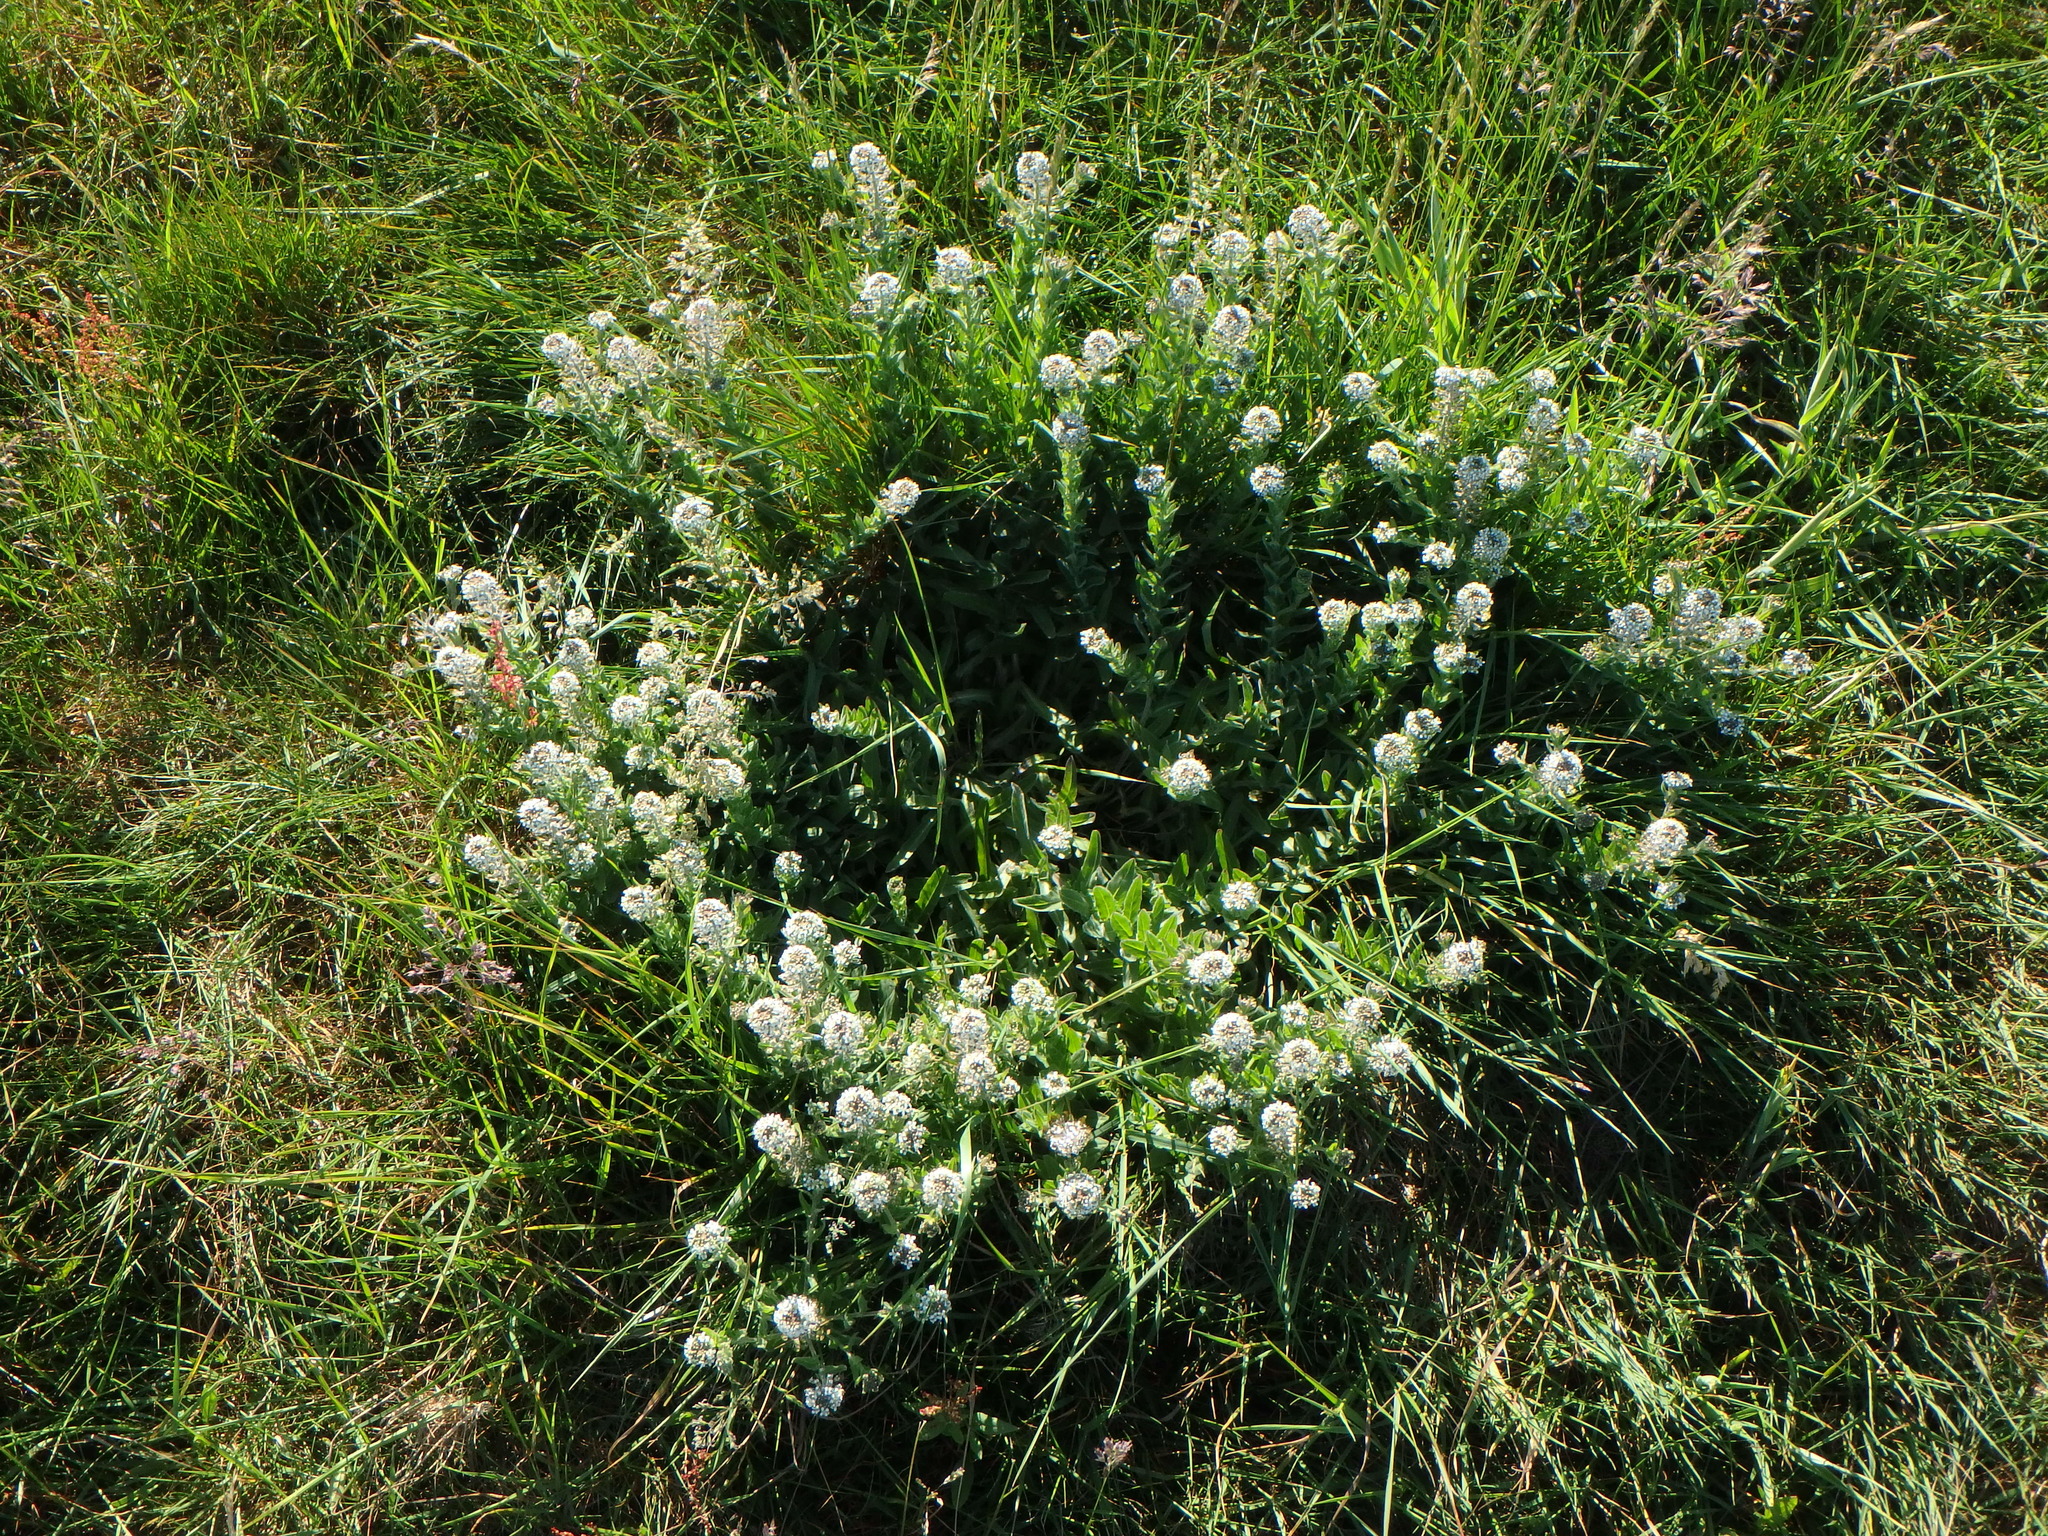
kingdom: Plantae
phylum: Tracheophyta
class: Magnoliopsida
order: Brassicales
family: Brassicaceae
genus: Lepidium
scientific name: Lepidium heterophyllum
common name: Smith's pepperwort
